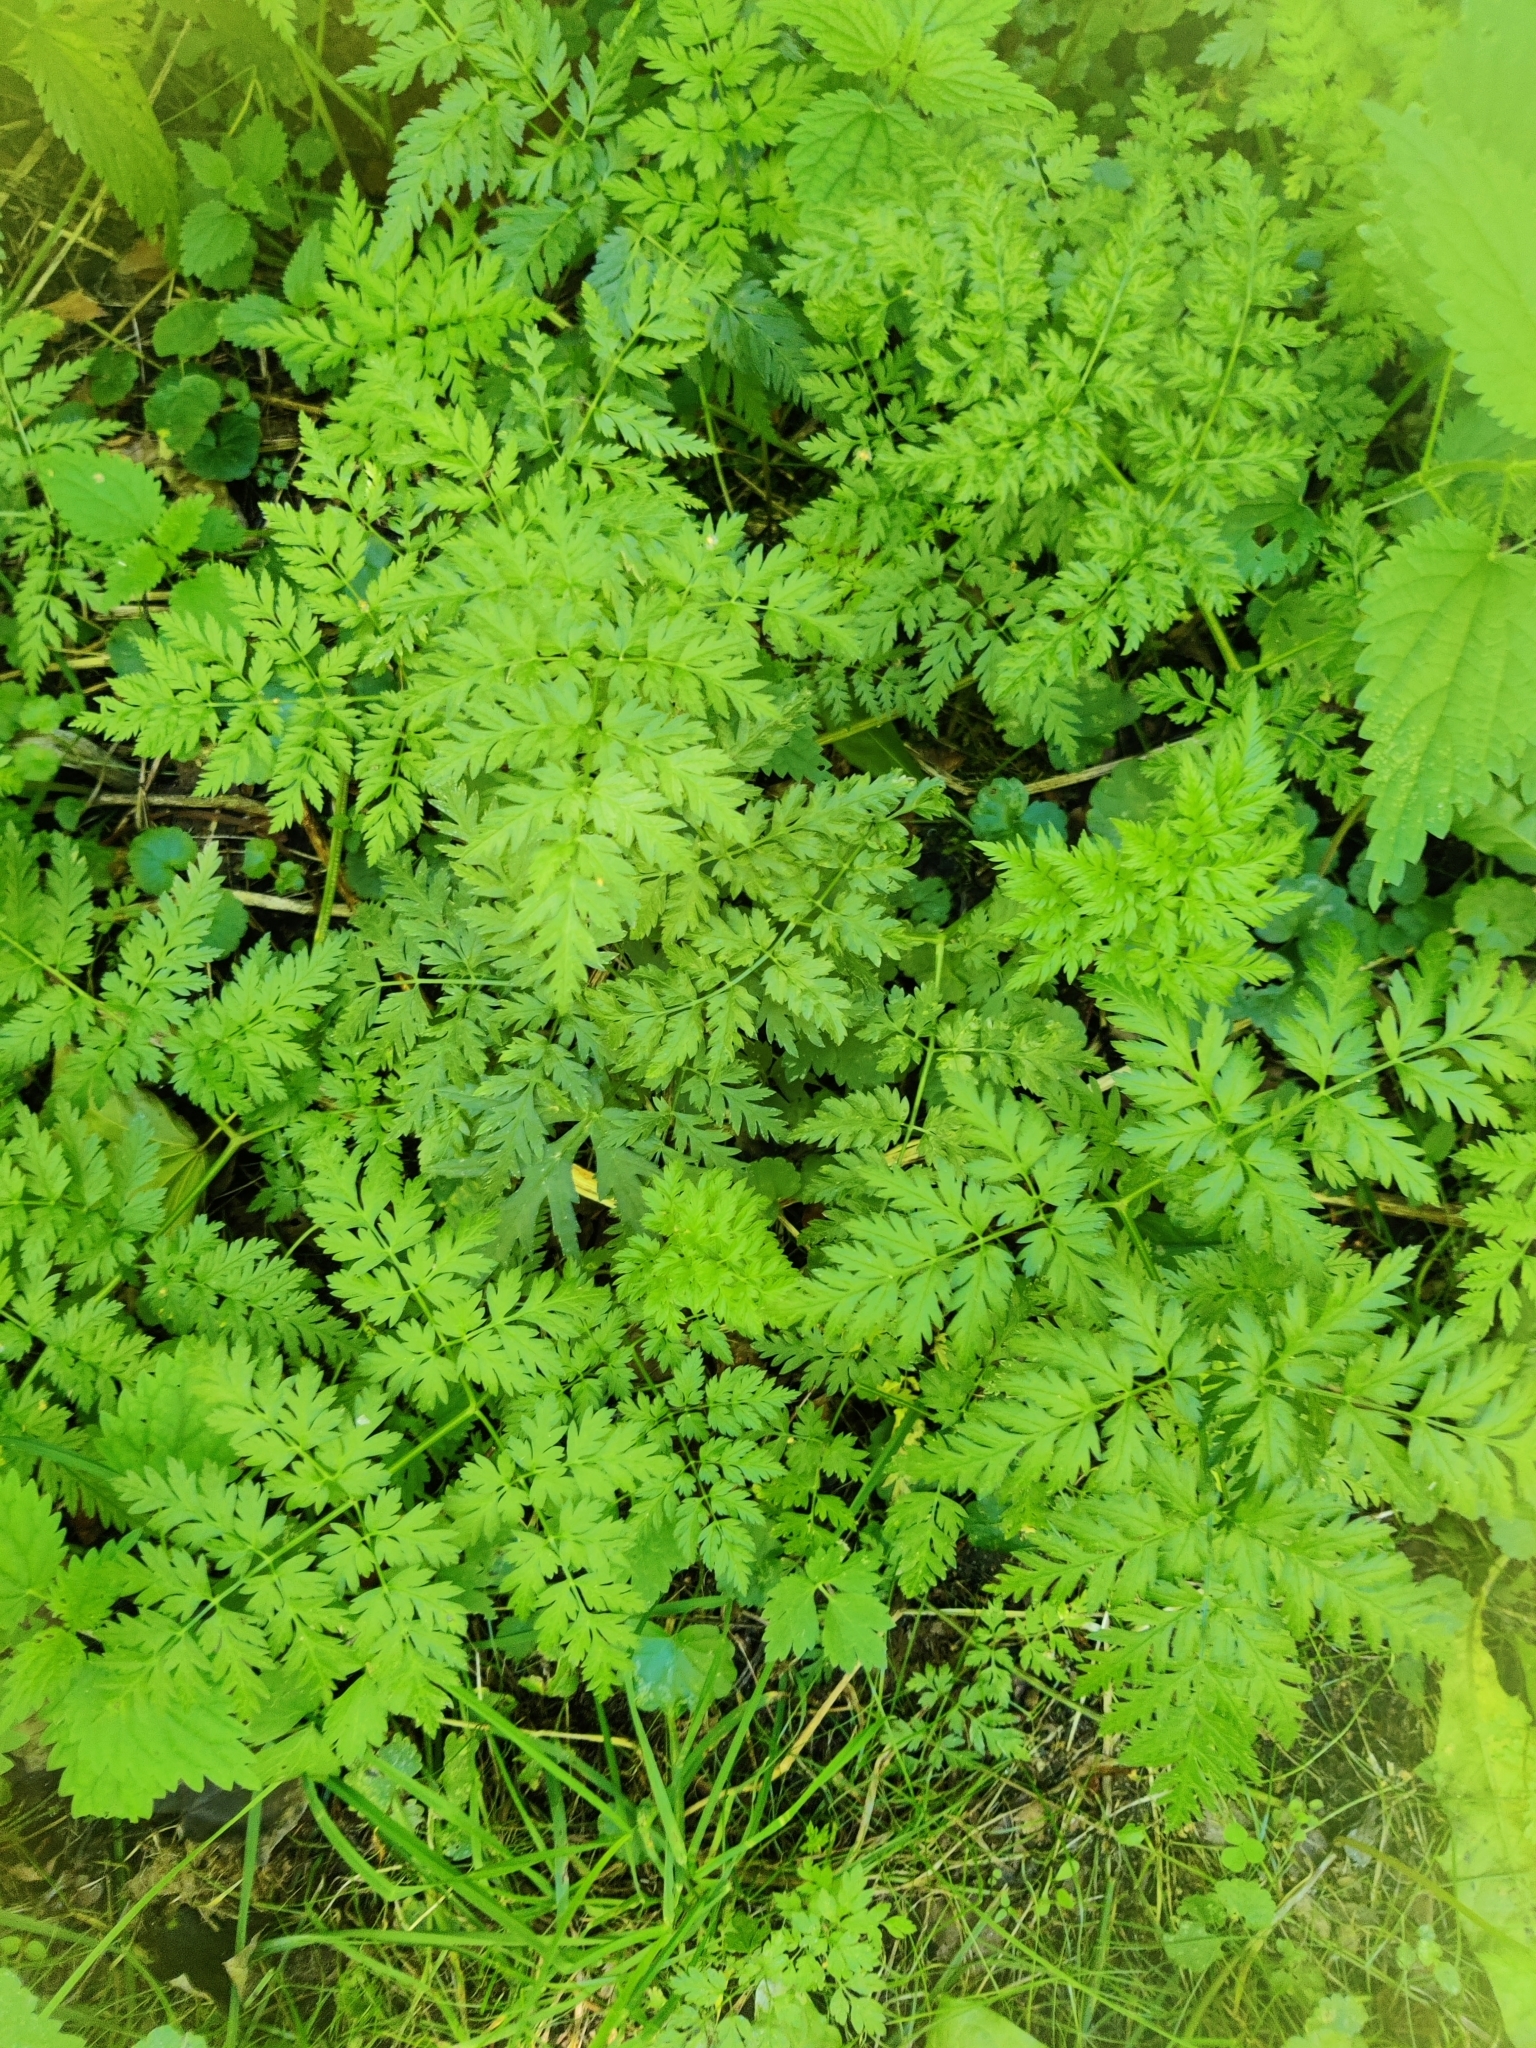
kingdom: Plantae
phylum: Tracheophyta
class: Magnoliopsida
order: Apiales
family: Apiaceae
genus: Anthriscus
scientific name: Anthriscus sylvestris
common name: Cow parsley
